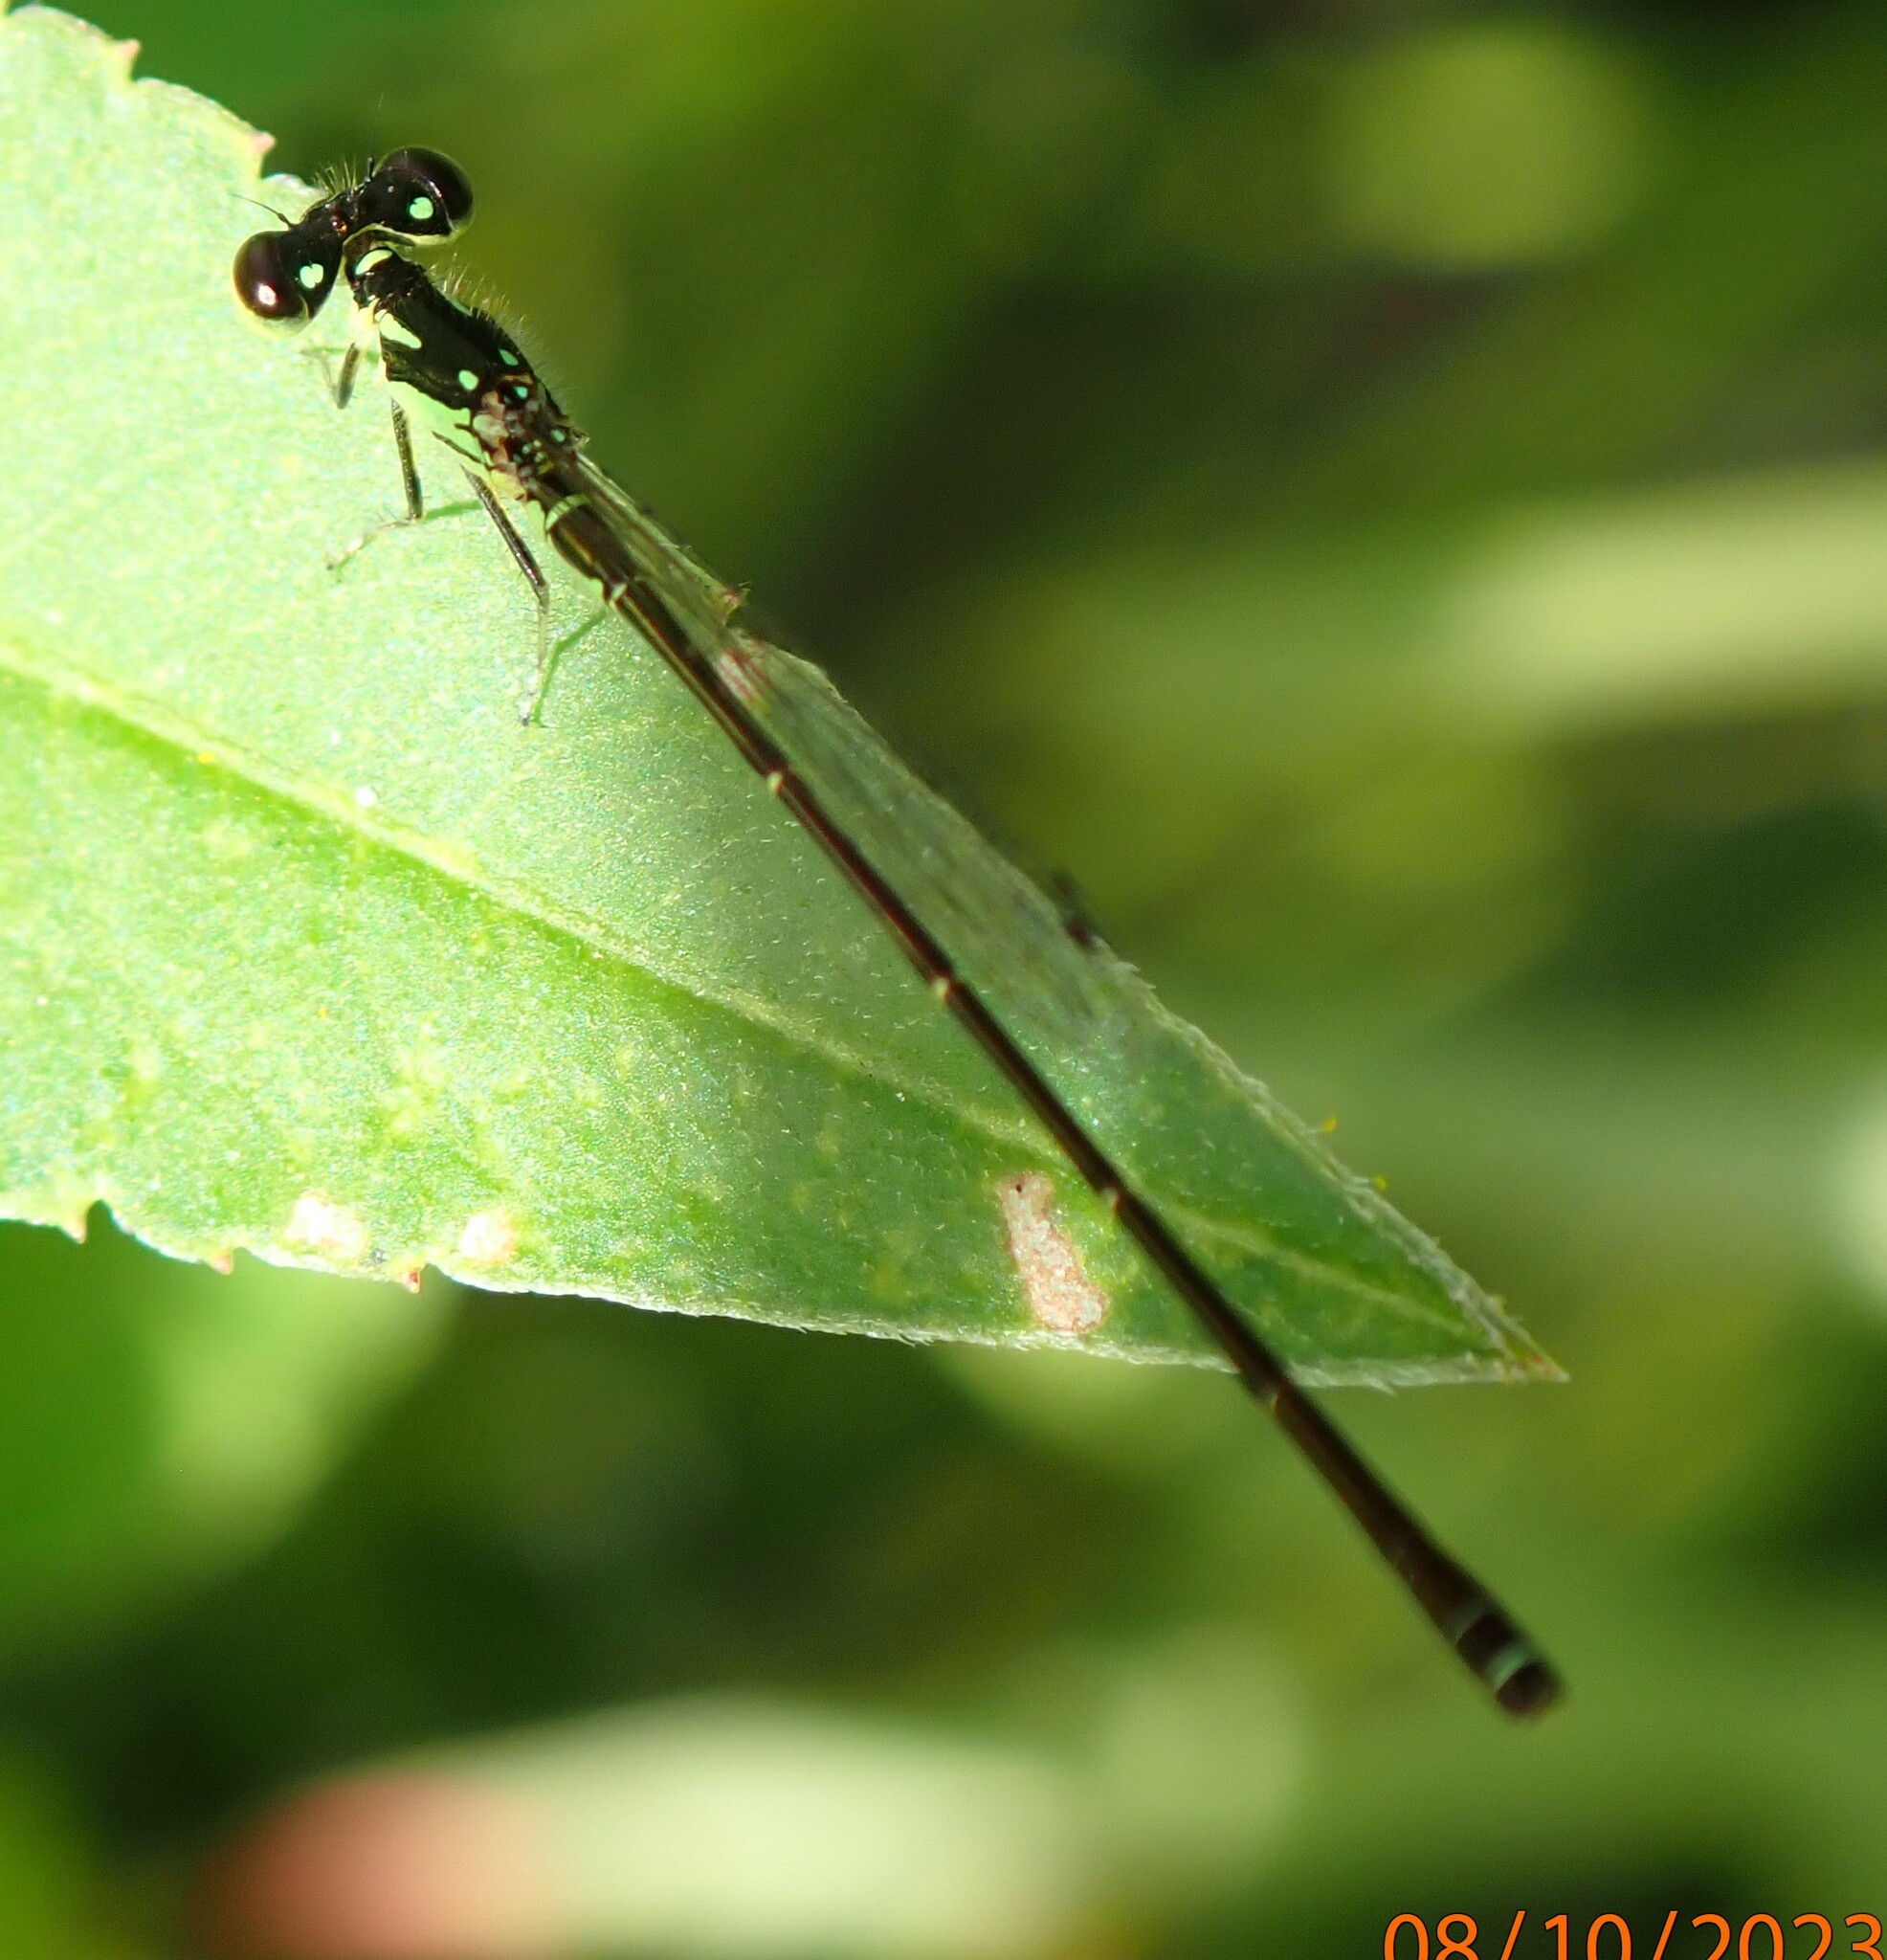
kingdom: Animalia
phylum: Arthropoda
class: Insecta
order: Odonata
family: Coenagrionidae
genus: Ischnura
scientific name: Ischnura posita
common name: Fragile forktail
